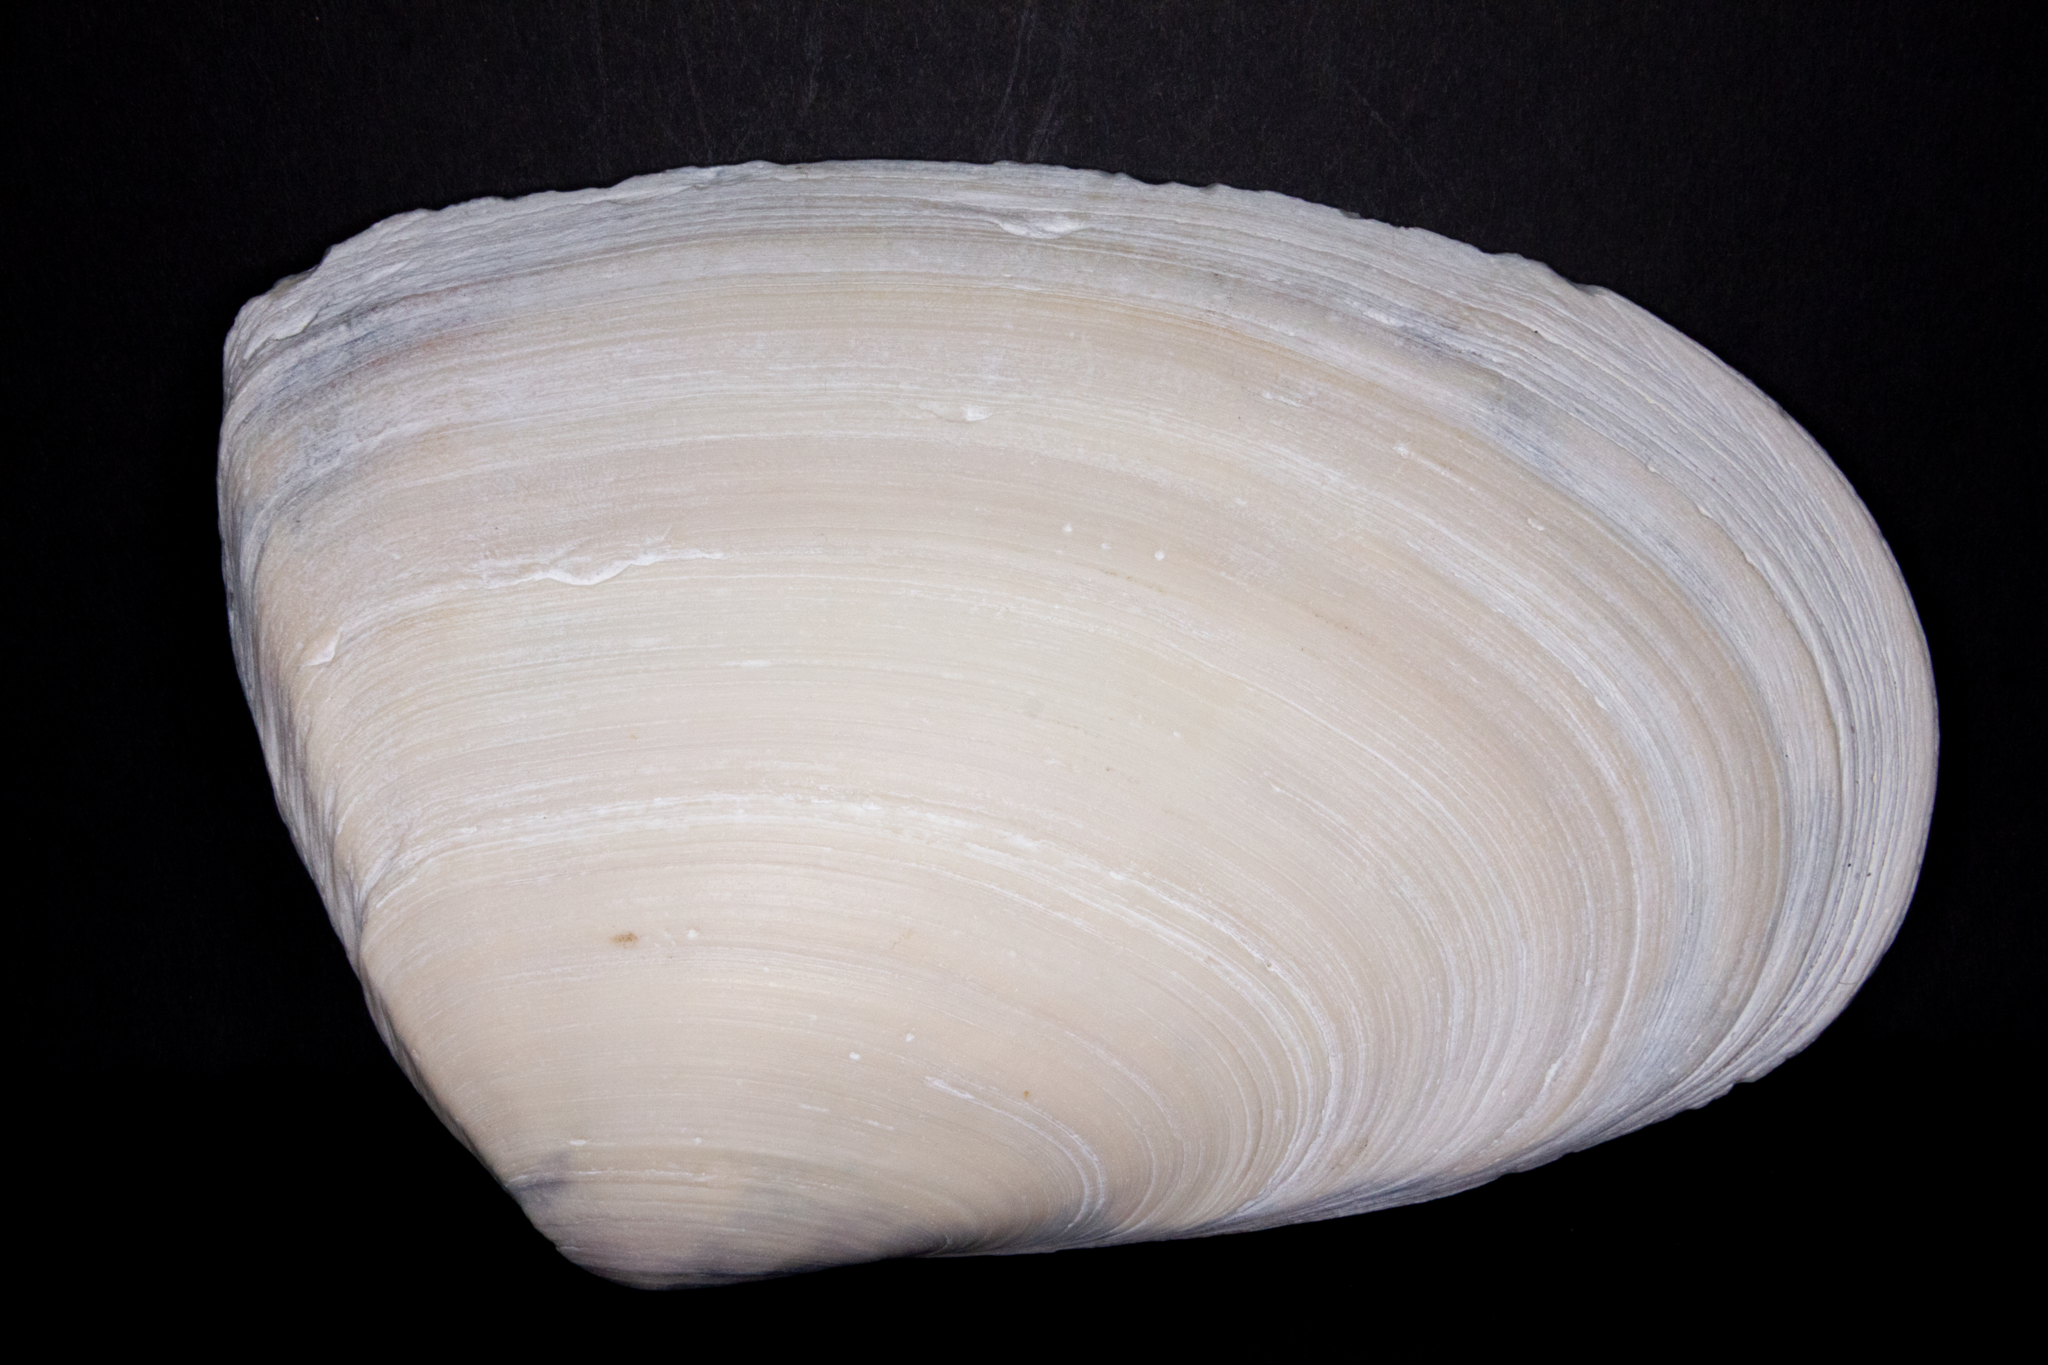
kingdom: Animalia
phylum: Mollusca
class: Bivalvia
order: Venerida
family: Mesodesmatidae
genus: Paphies
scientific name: Paphies ventricosa
